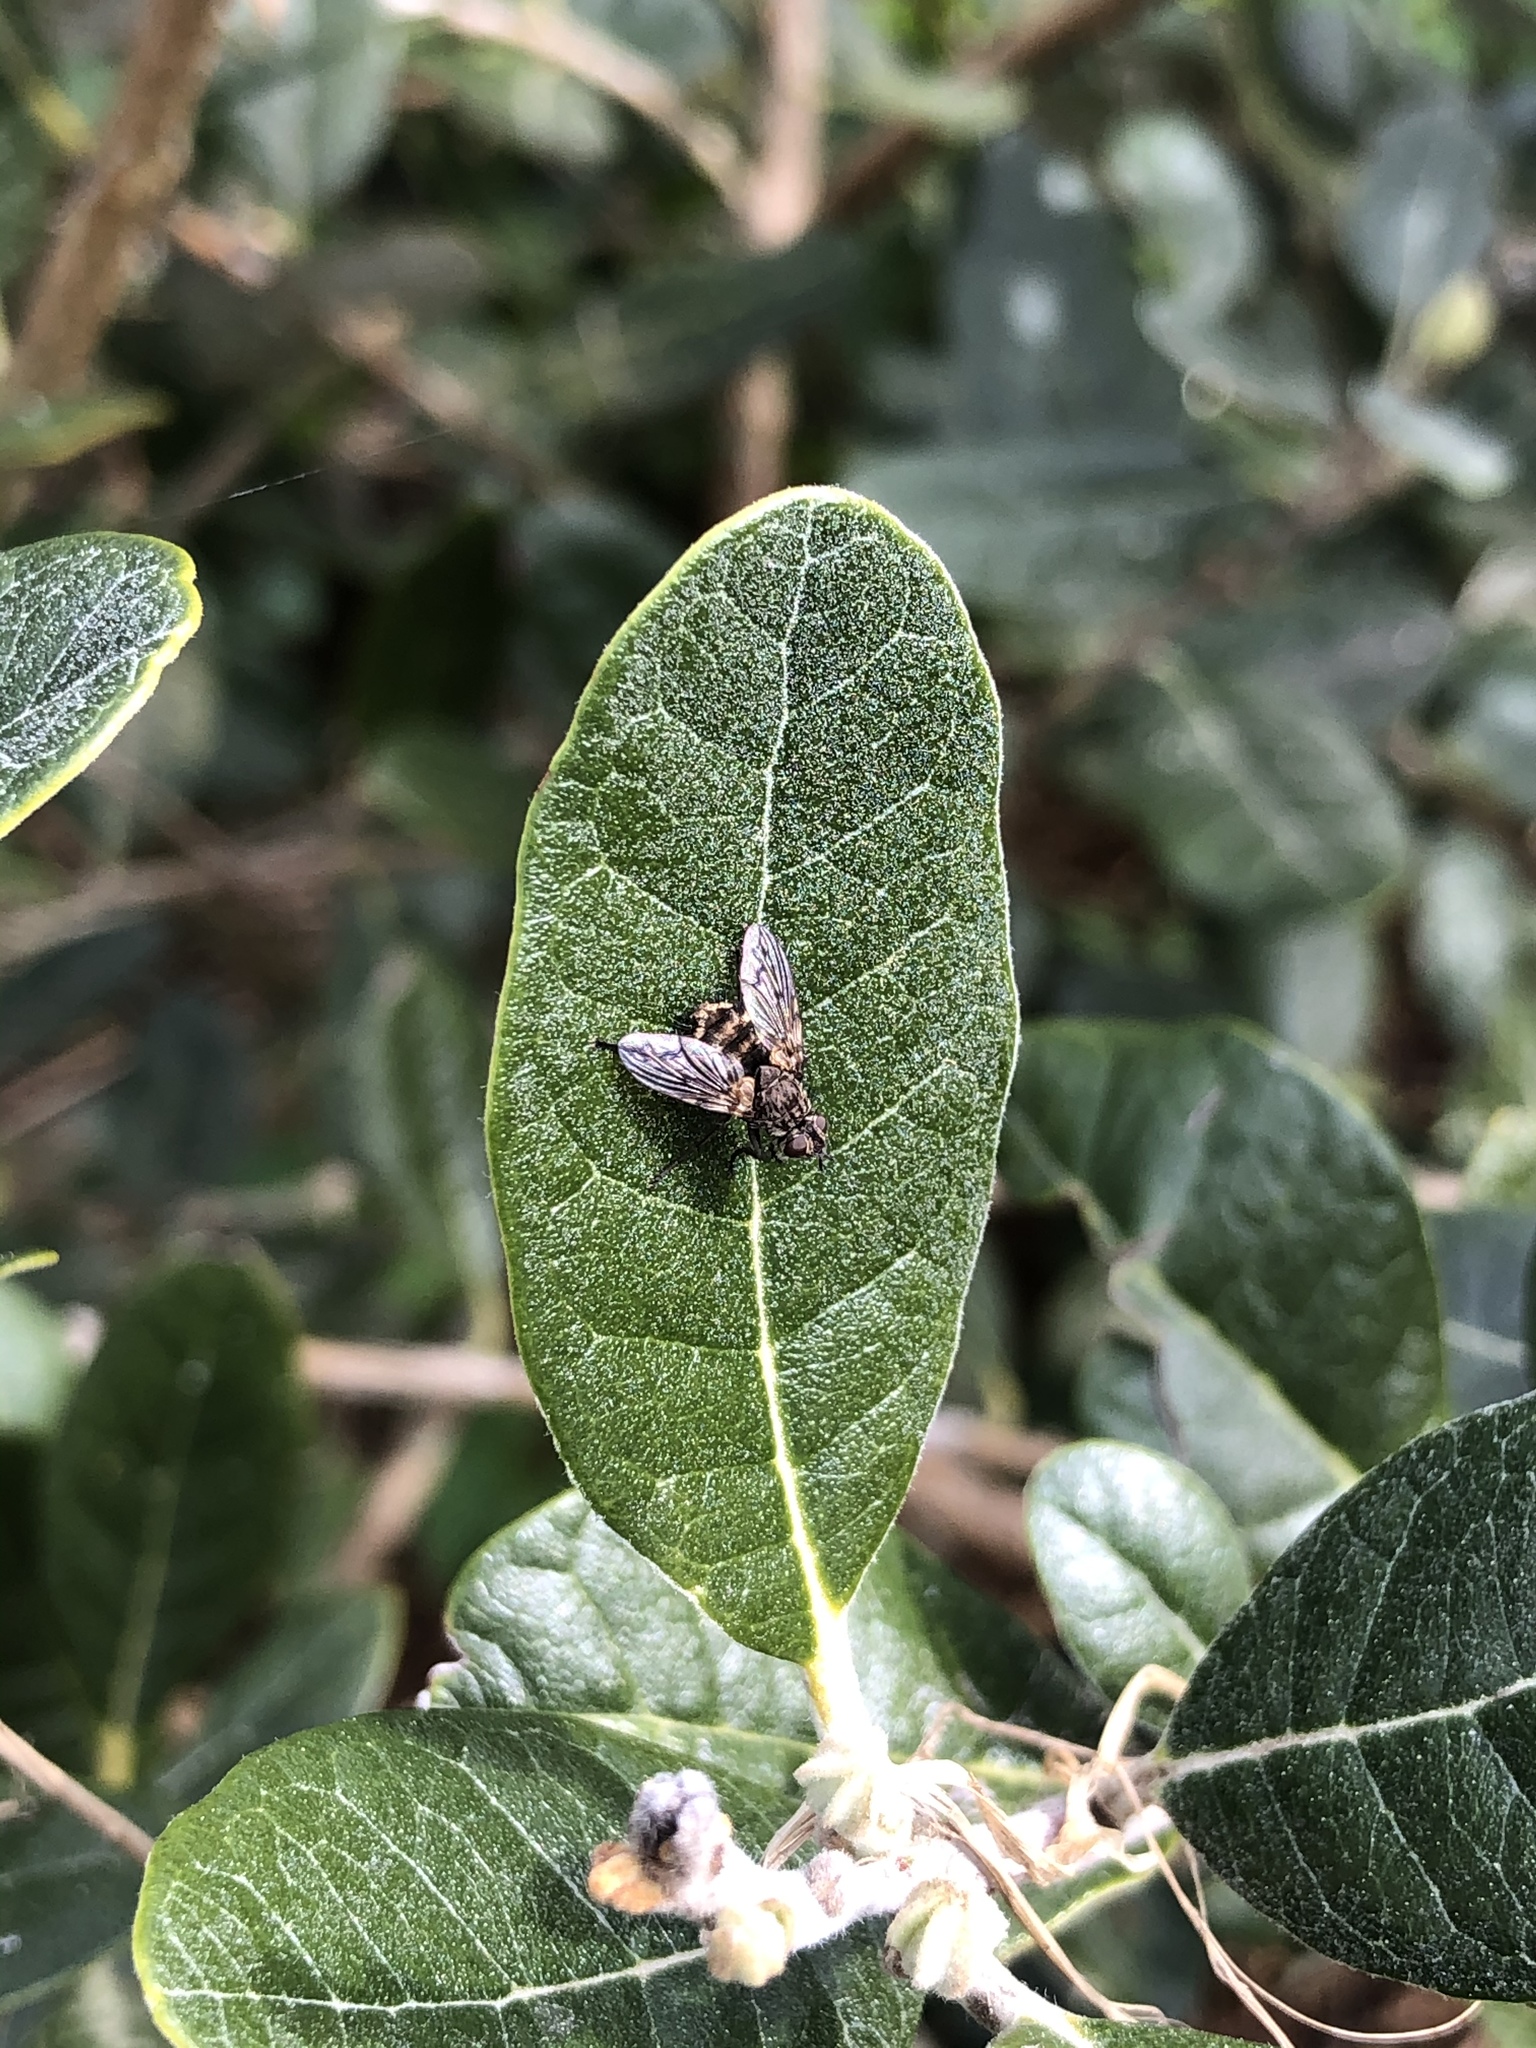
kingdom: Animalia
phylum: Arthropoda
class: Insecta
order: Diptera
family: Tachinidae
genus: Mallochomacquartia
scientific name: Mallochomacquartia vexata
